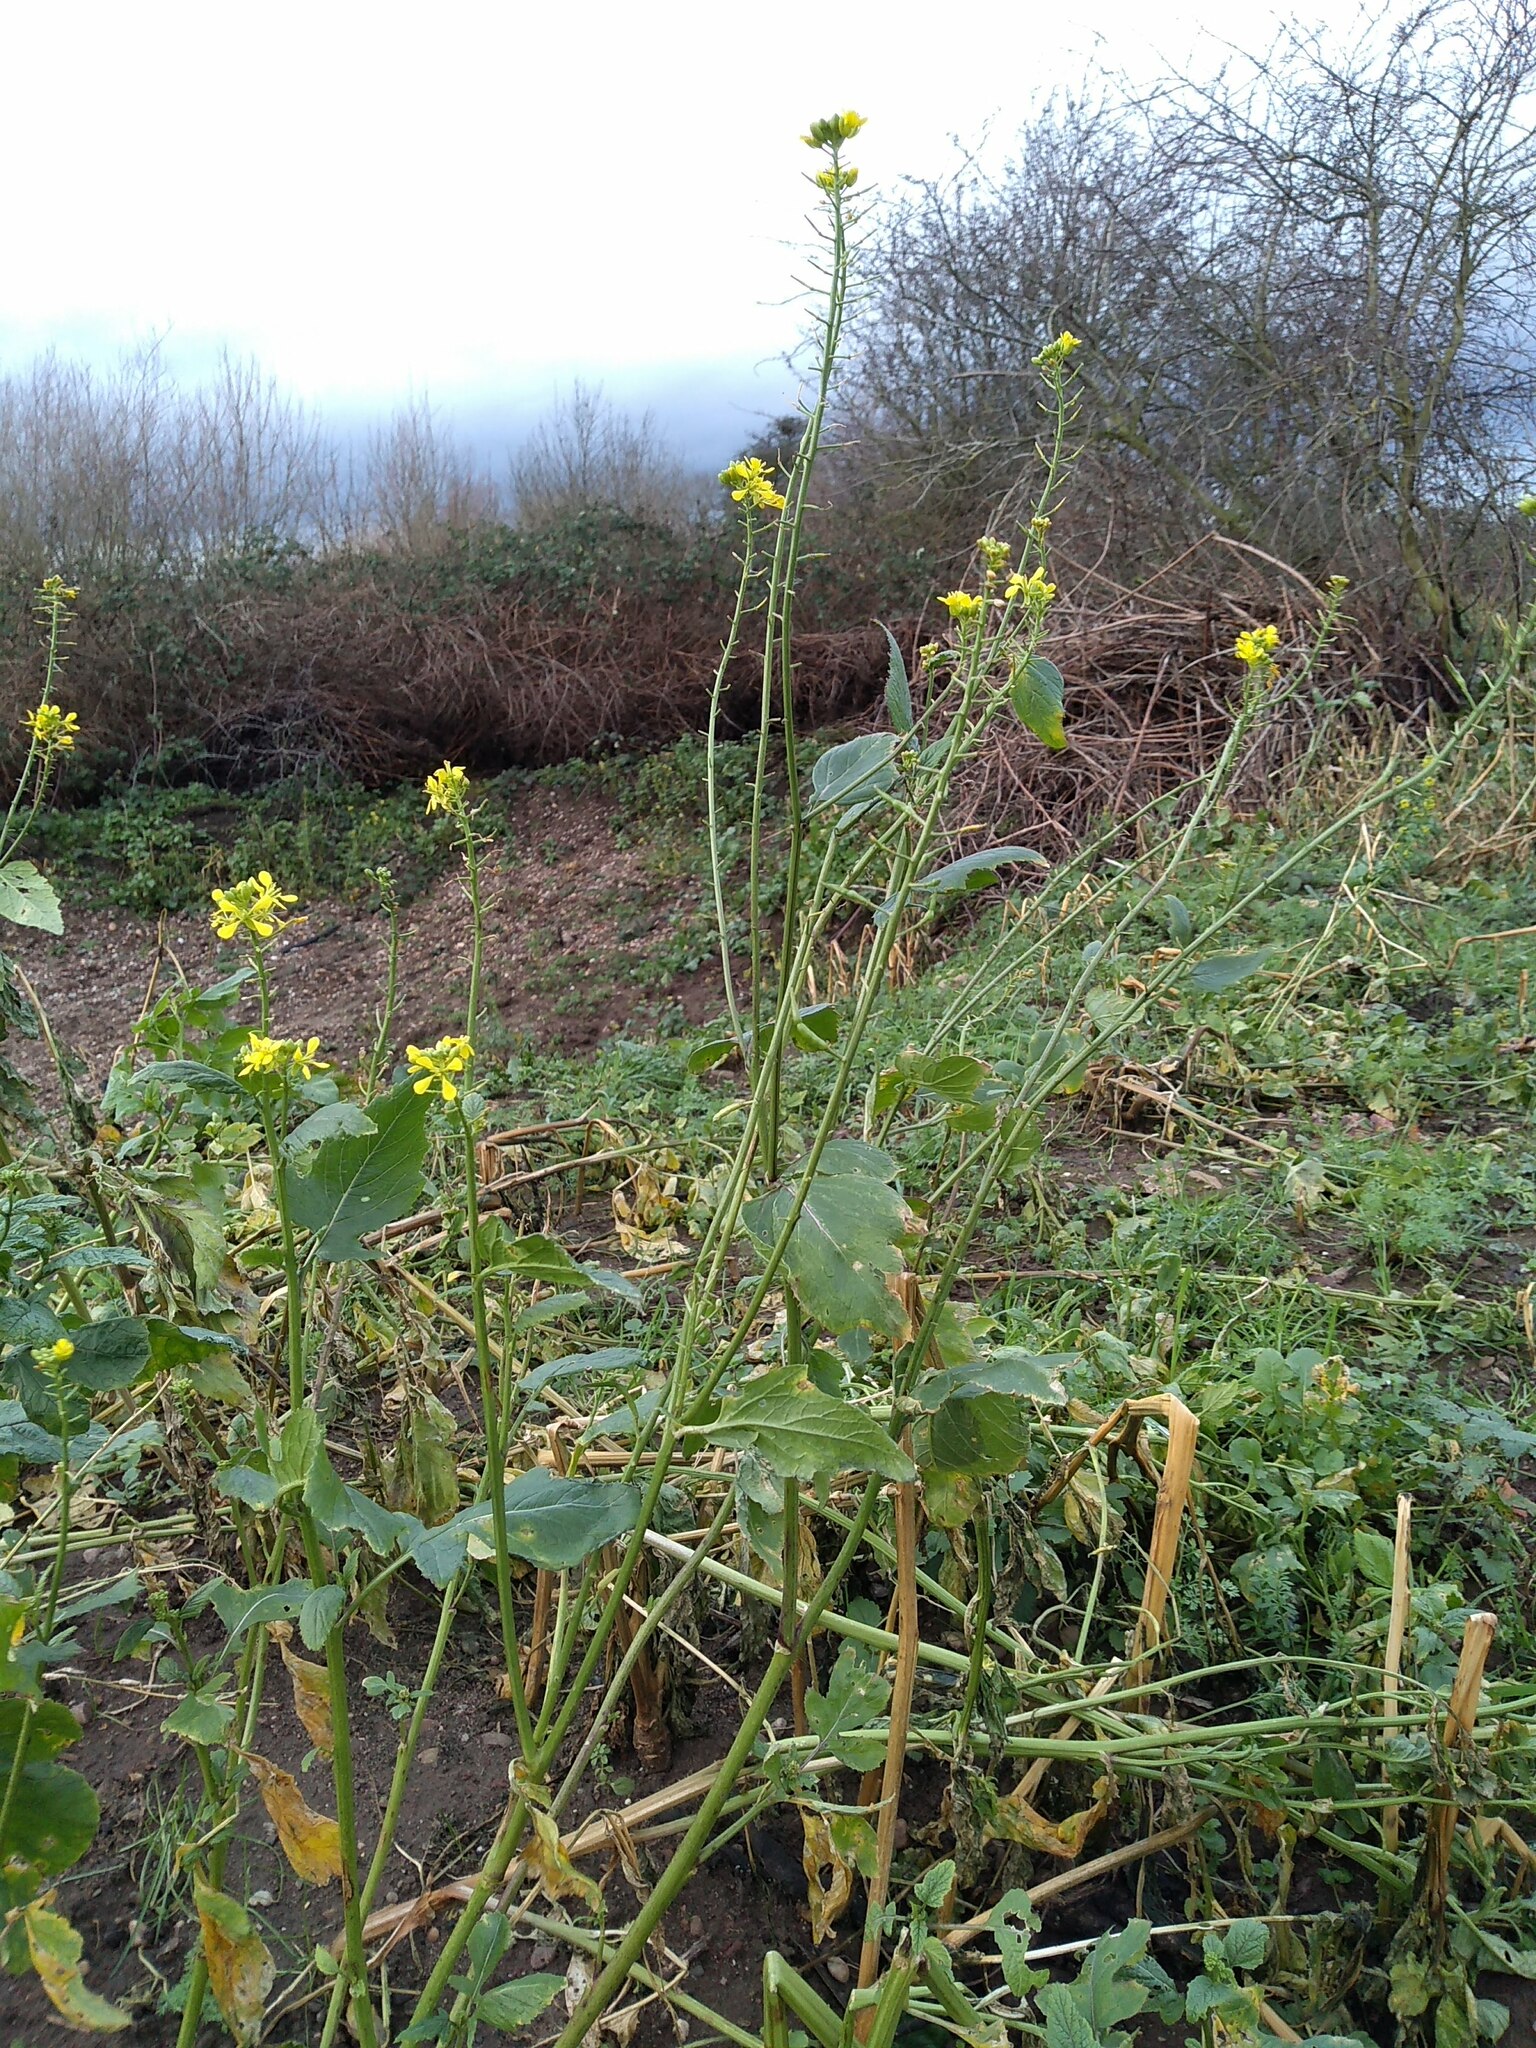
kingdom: Plantae
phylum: Tracheophyta
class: Magnoliopsida
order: Brassicales
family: Brassicaceae
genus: Sinapis
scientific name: Sinapis alba
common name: White mustard
